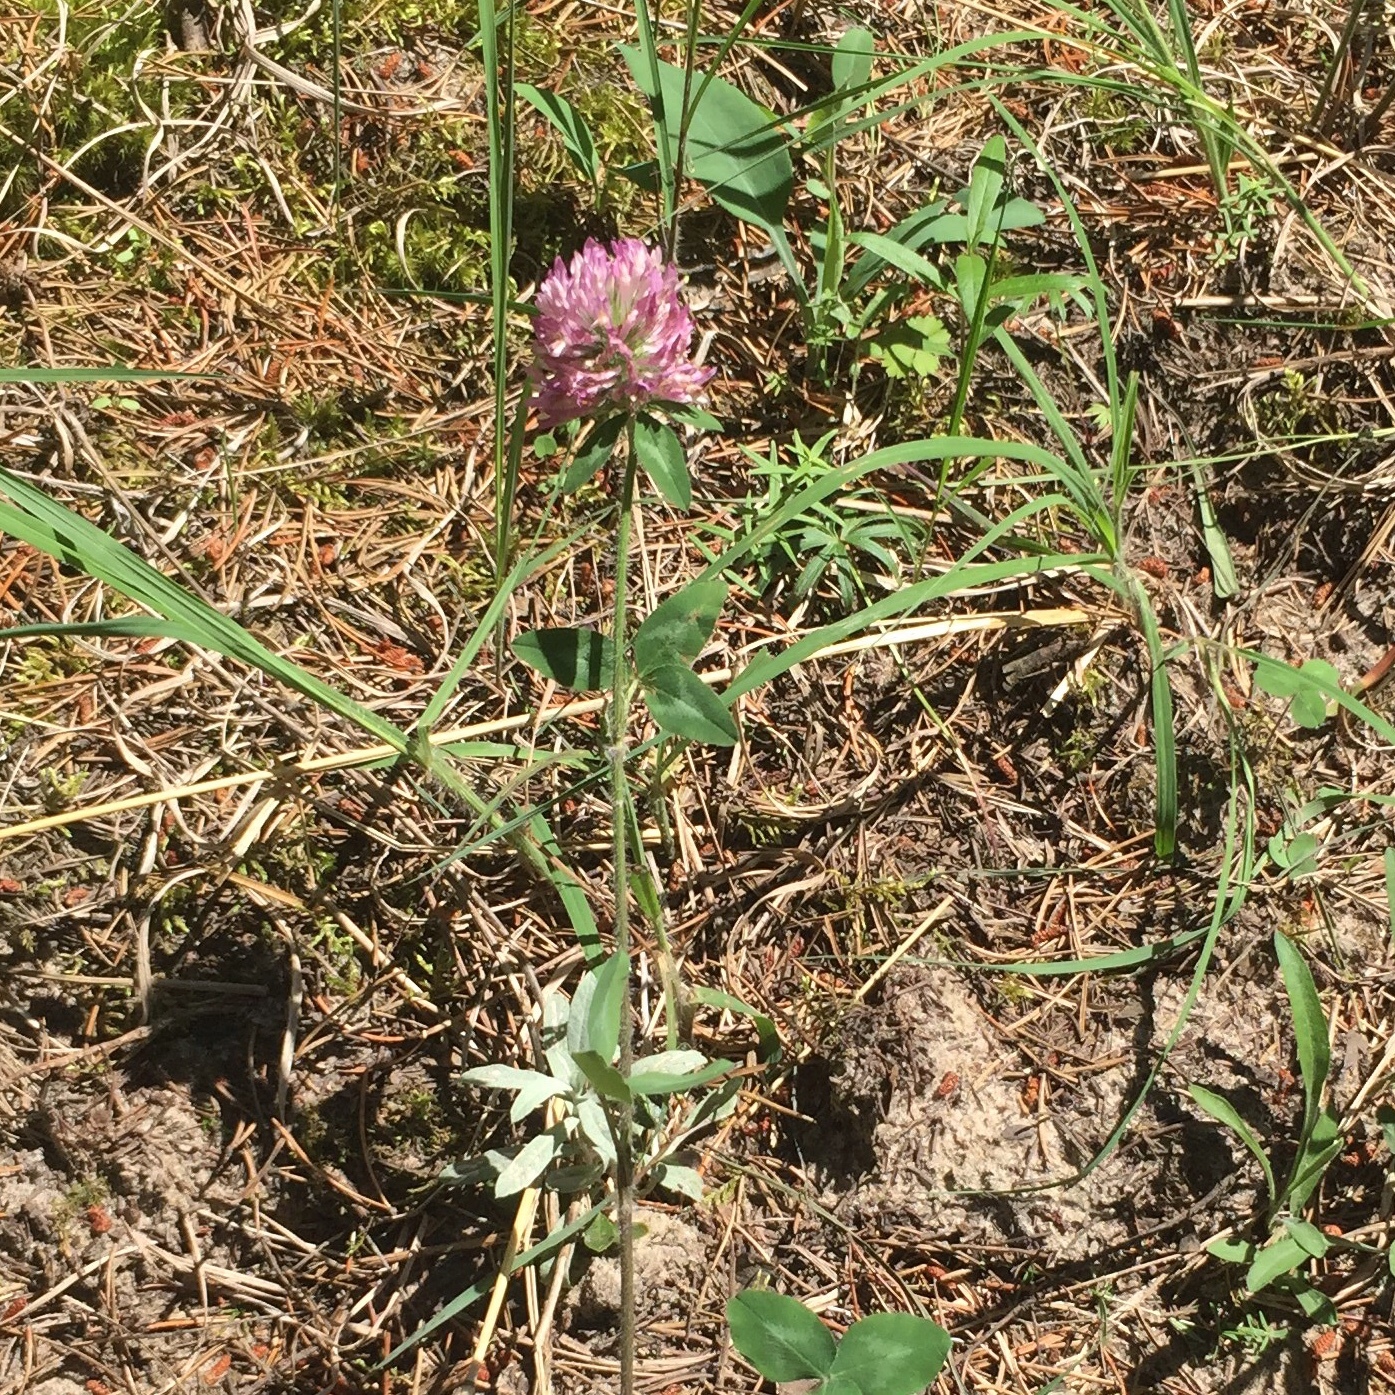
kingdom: Plantae
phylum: Tracheophyta
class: Magnoliopsida
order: Fabales
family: Fabaceae
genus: Trifolium
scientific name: Trifolium pratense
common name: Red clover
